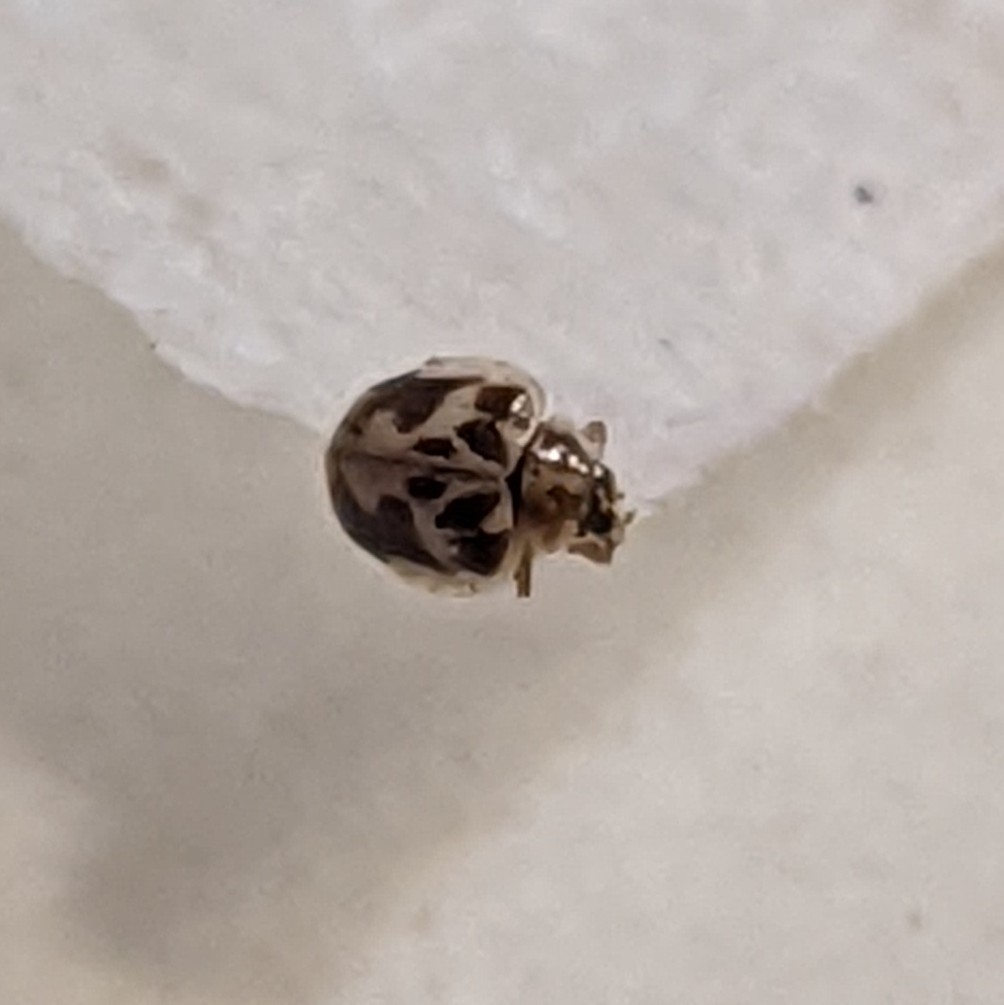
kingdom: Animalia
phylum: Arthropoda
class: Insecta
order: Coleoptera
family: Coccinellidae
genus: Psyllobora
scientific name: Psyllobora renifer
